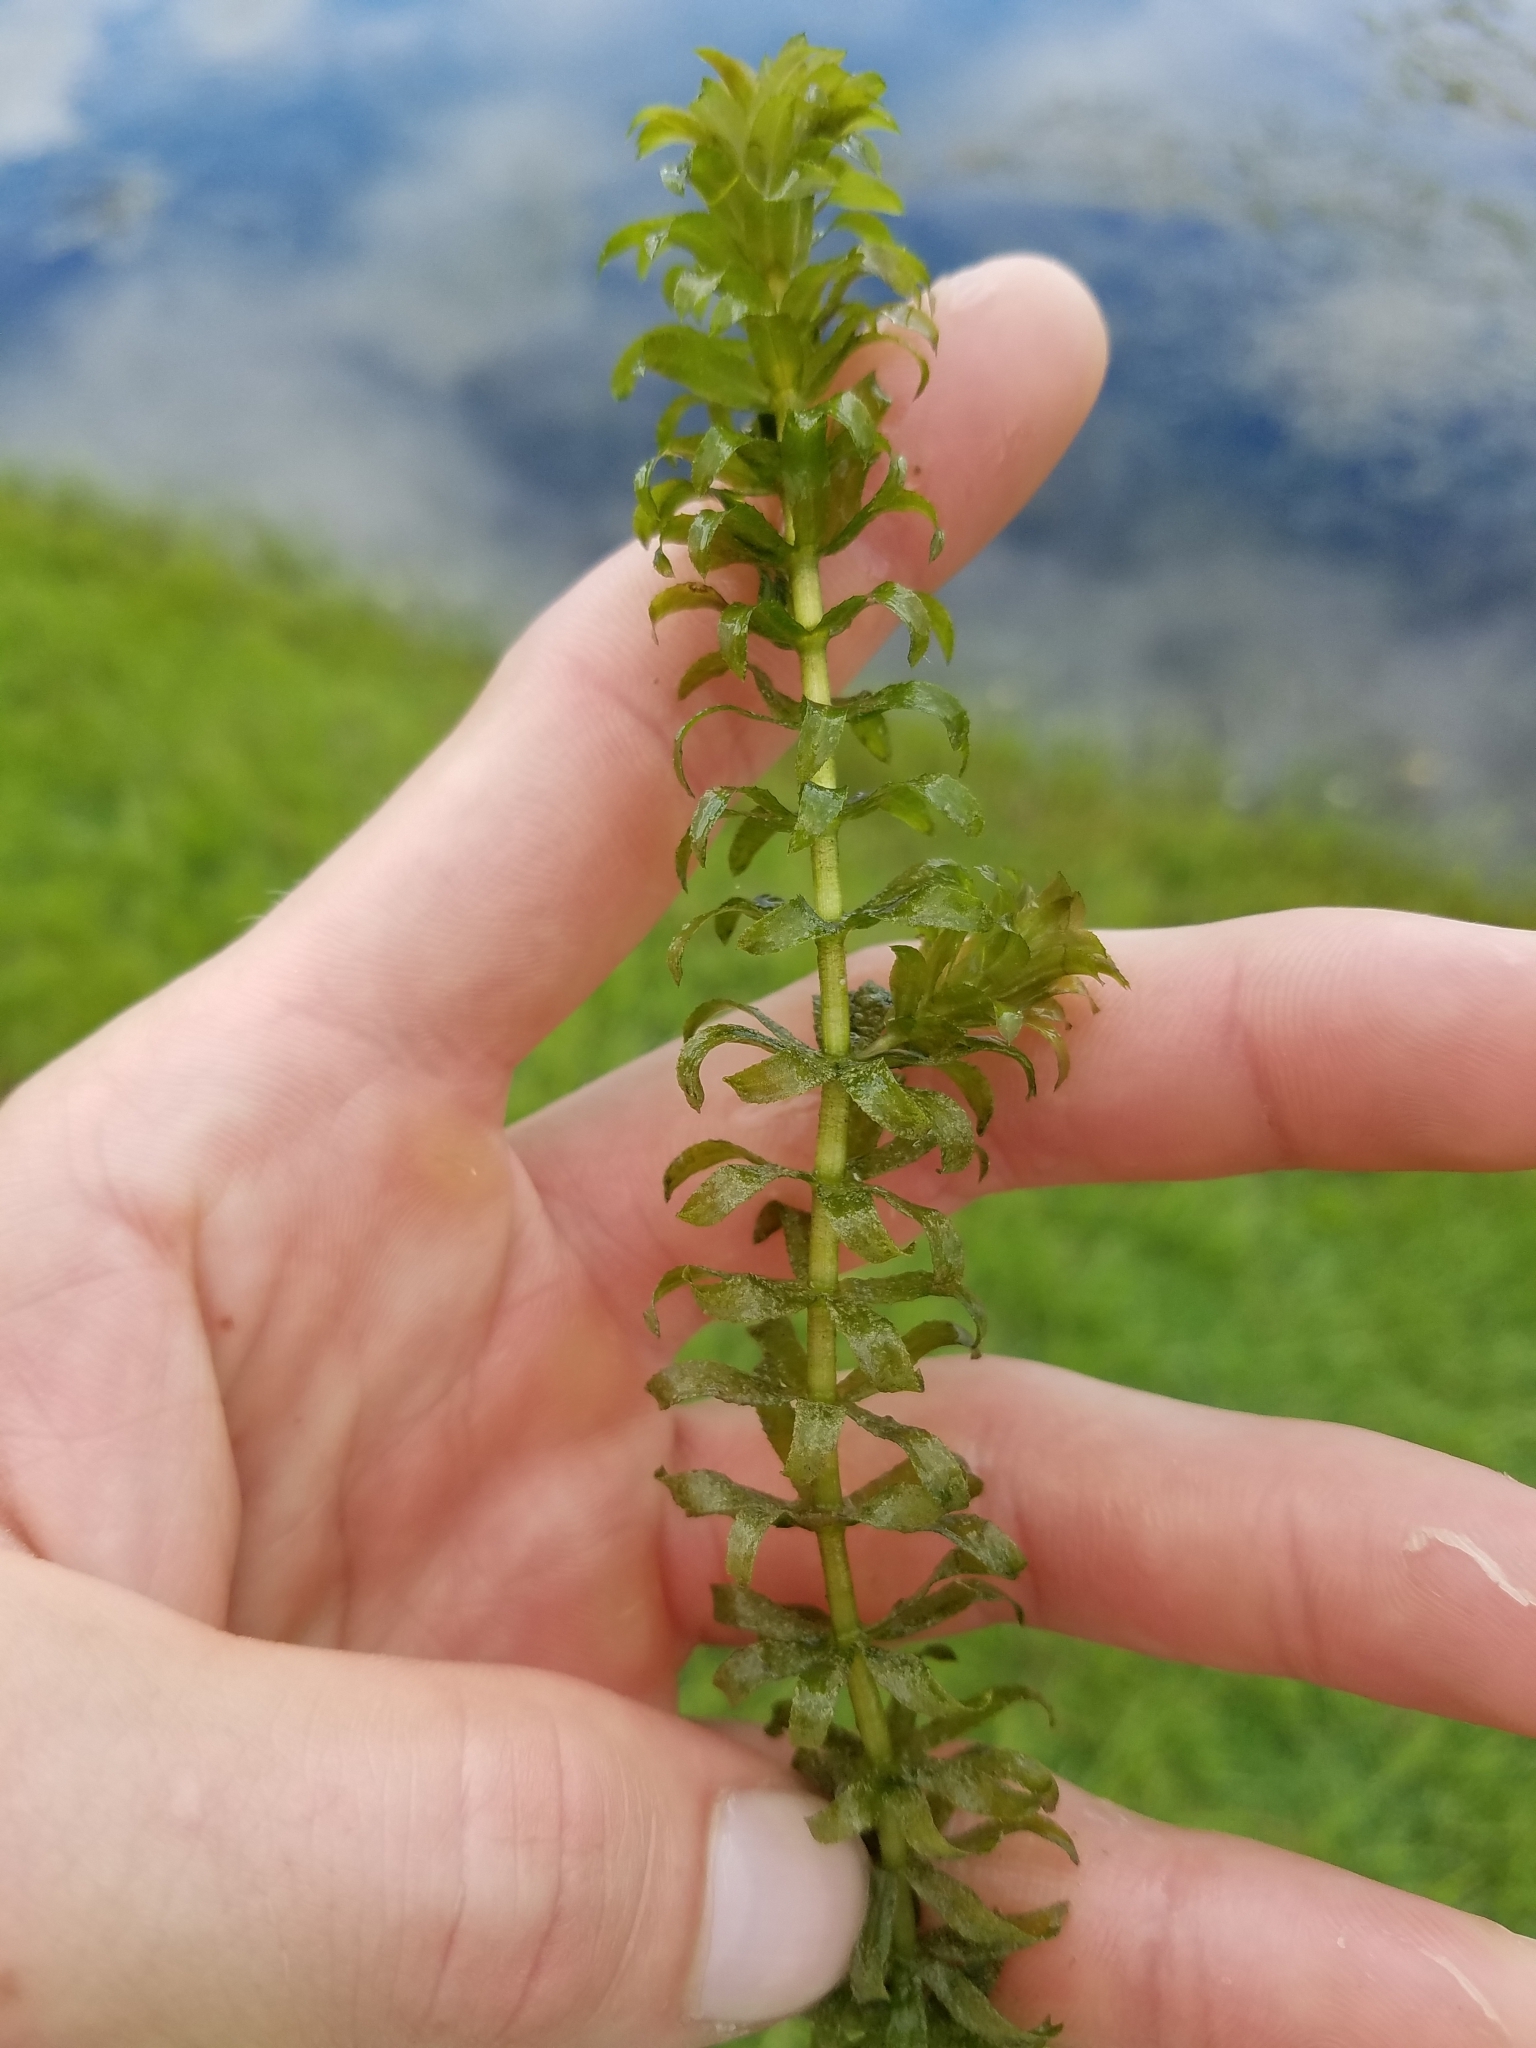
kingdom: Plantae
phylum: Tracheophyta
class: Liliopsida
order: Alismatales
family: Hydrocharitaceae
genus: Hydrilla
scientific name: Hydrilla verticillata
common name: Florida-elodea
